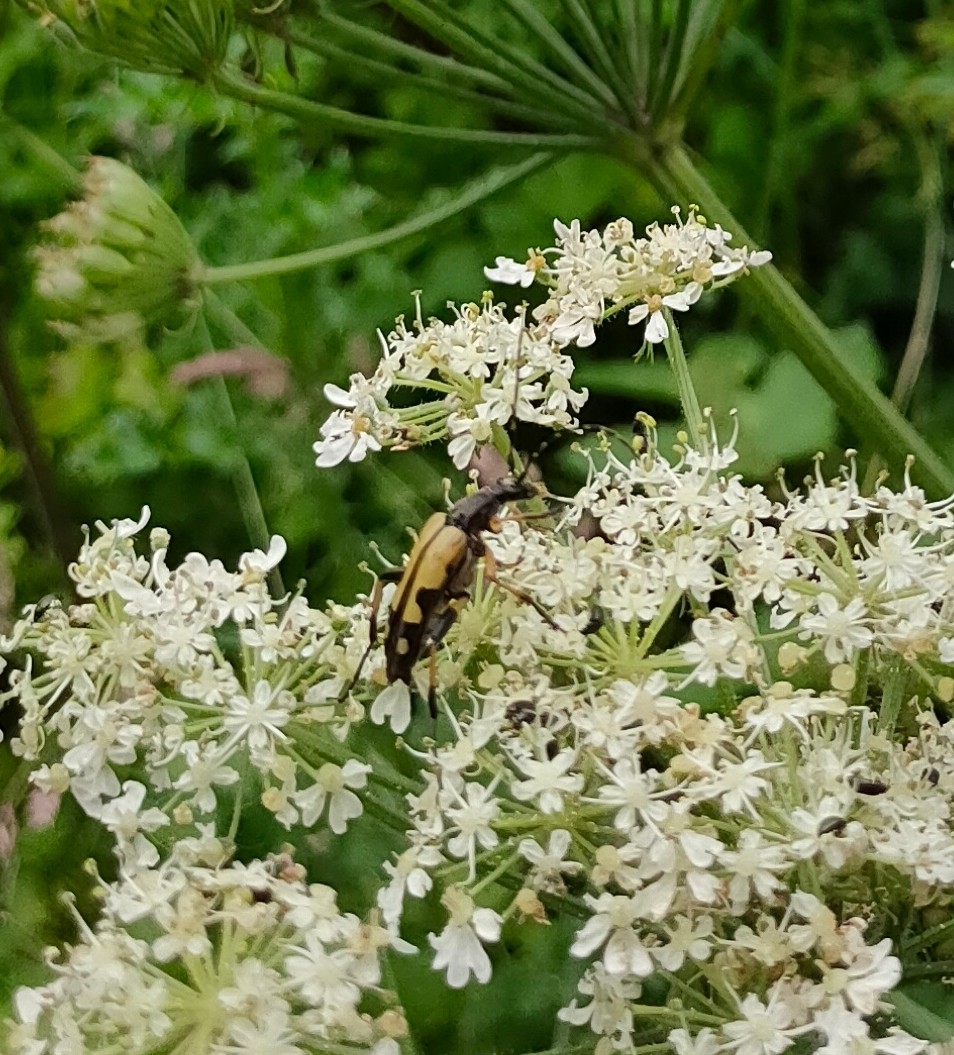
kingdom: Animalia
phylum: Arthropoda
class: Insecta
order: Coleoptera
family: Cerambycidae
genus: Rutpela
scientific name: Rutpela maculata
